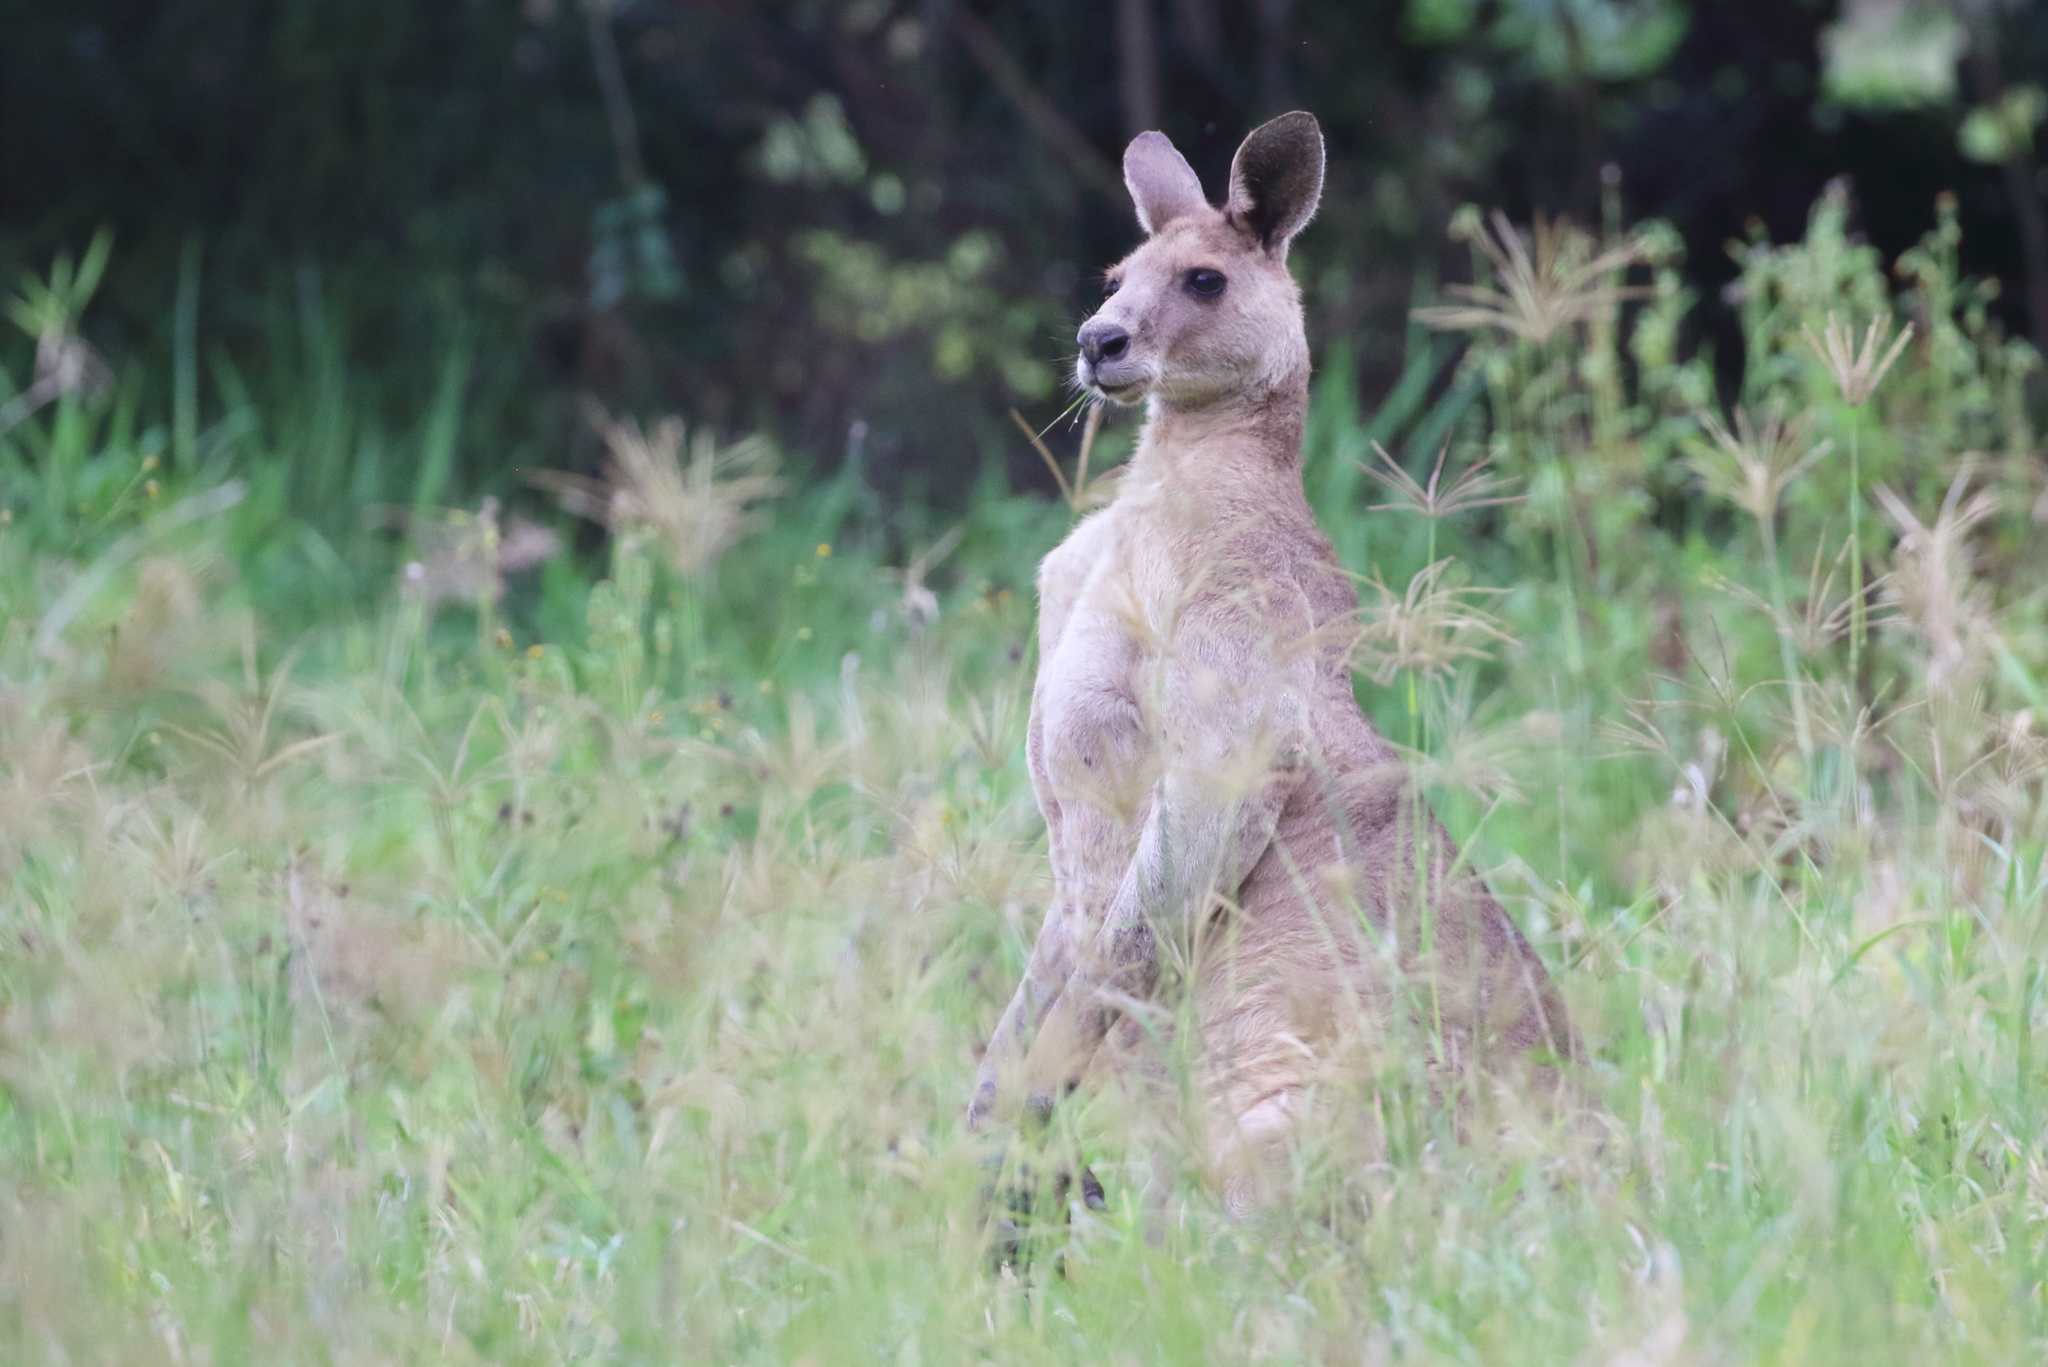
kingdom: Animalia
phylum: Chordata
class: Mammalia
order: Diprotodontia
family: Macropodidae
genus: Macropus
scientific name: Macropus giganteus
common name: Eastern grey kangaroo
